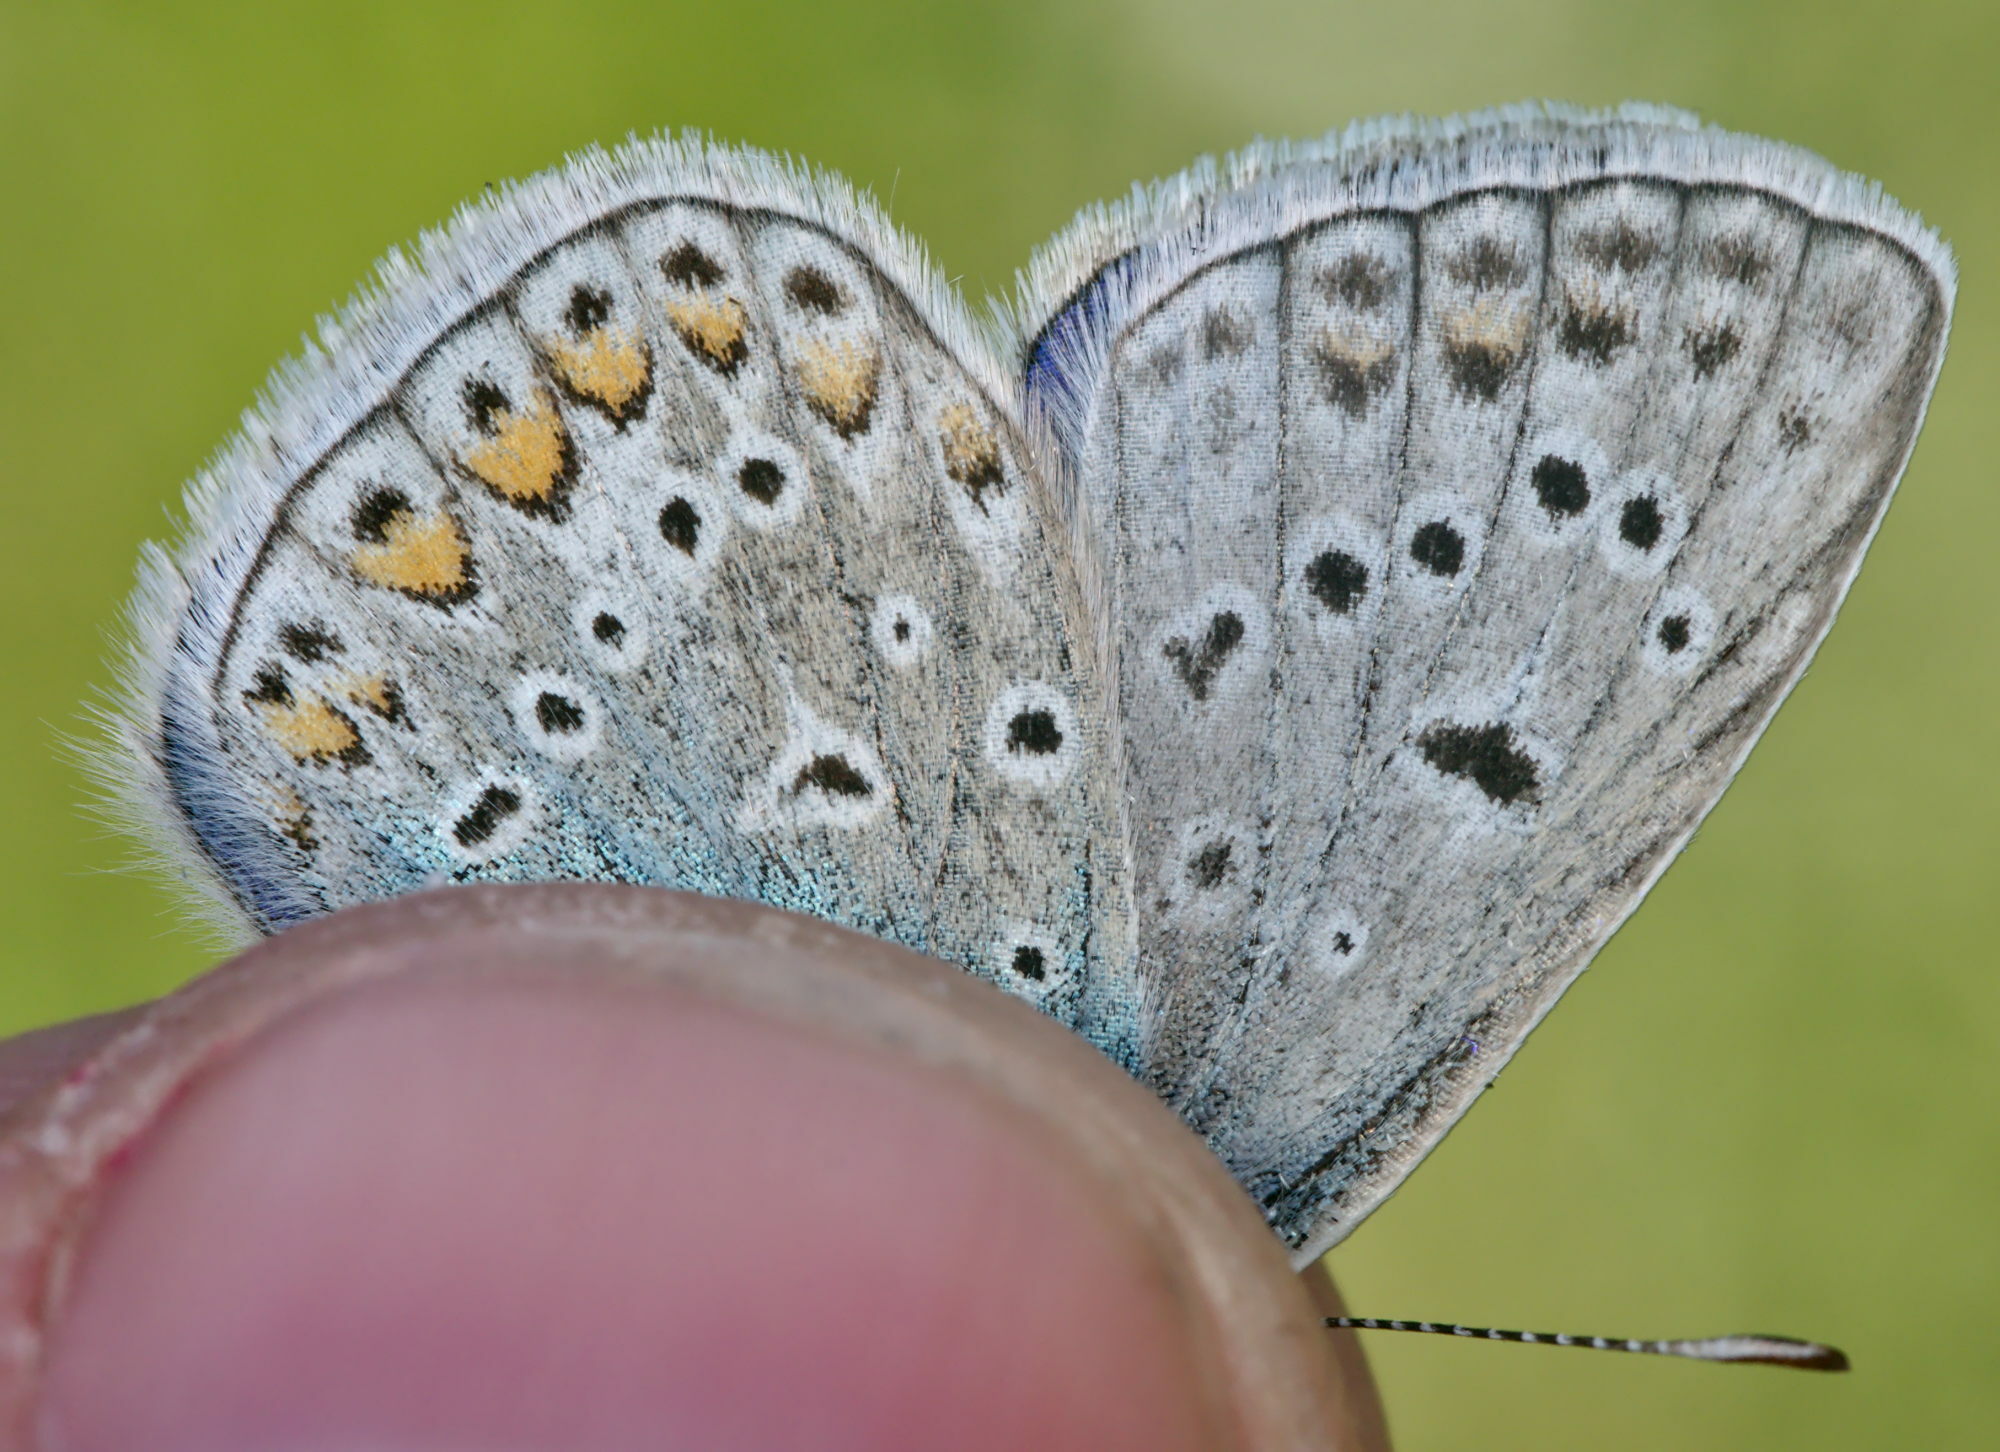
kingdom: Animalia
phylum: Arthropoda
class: Insecta
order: Lepidoptera
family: Lycaenidae
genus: Polyommatus
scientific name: Polyommatus icarus
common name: Common blue
